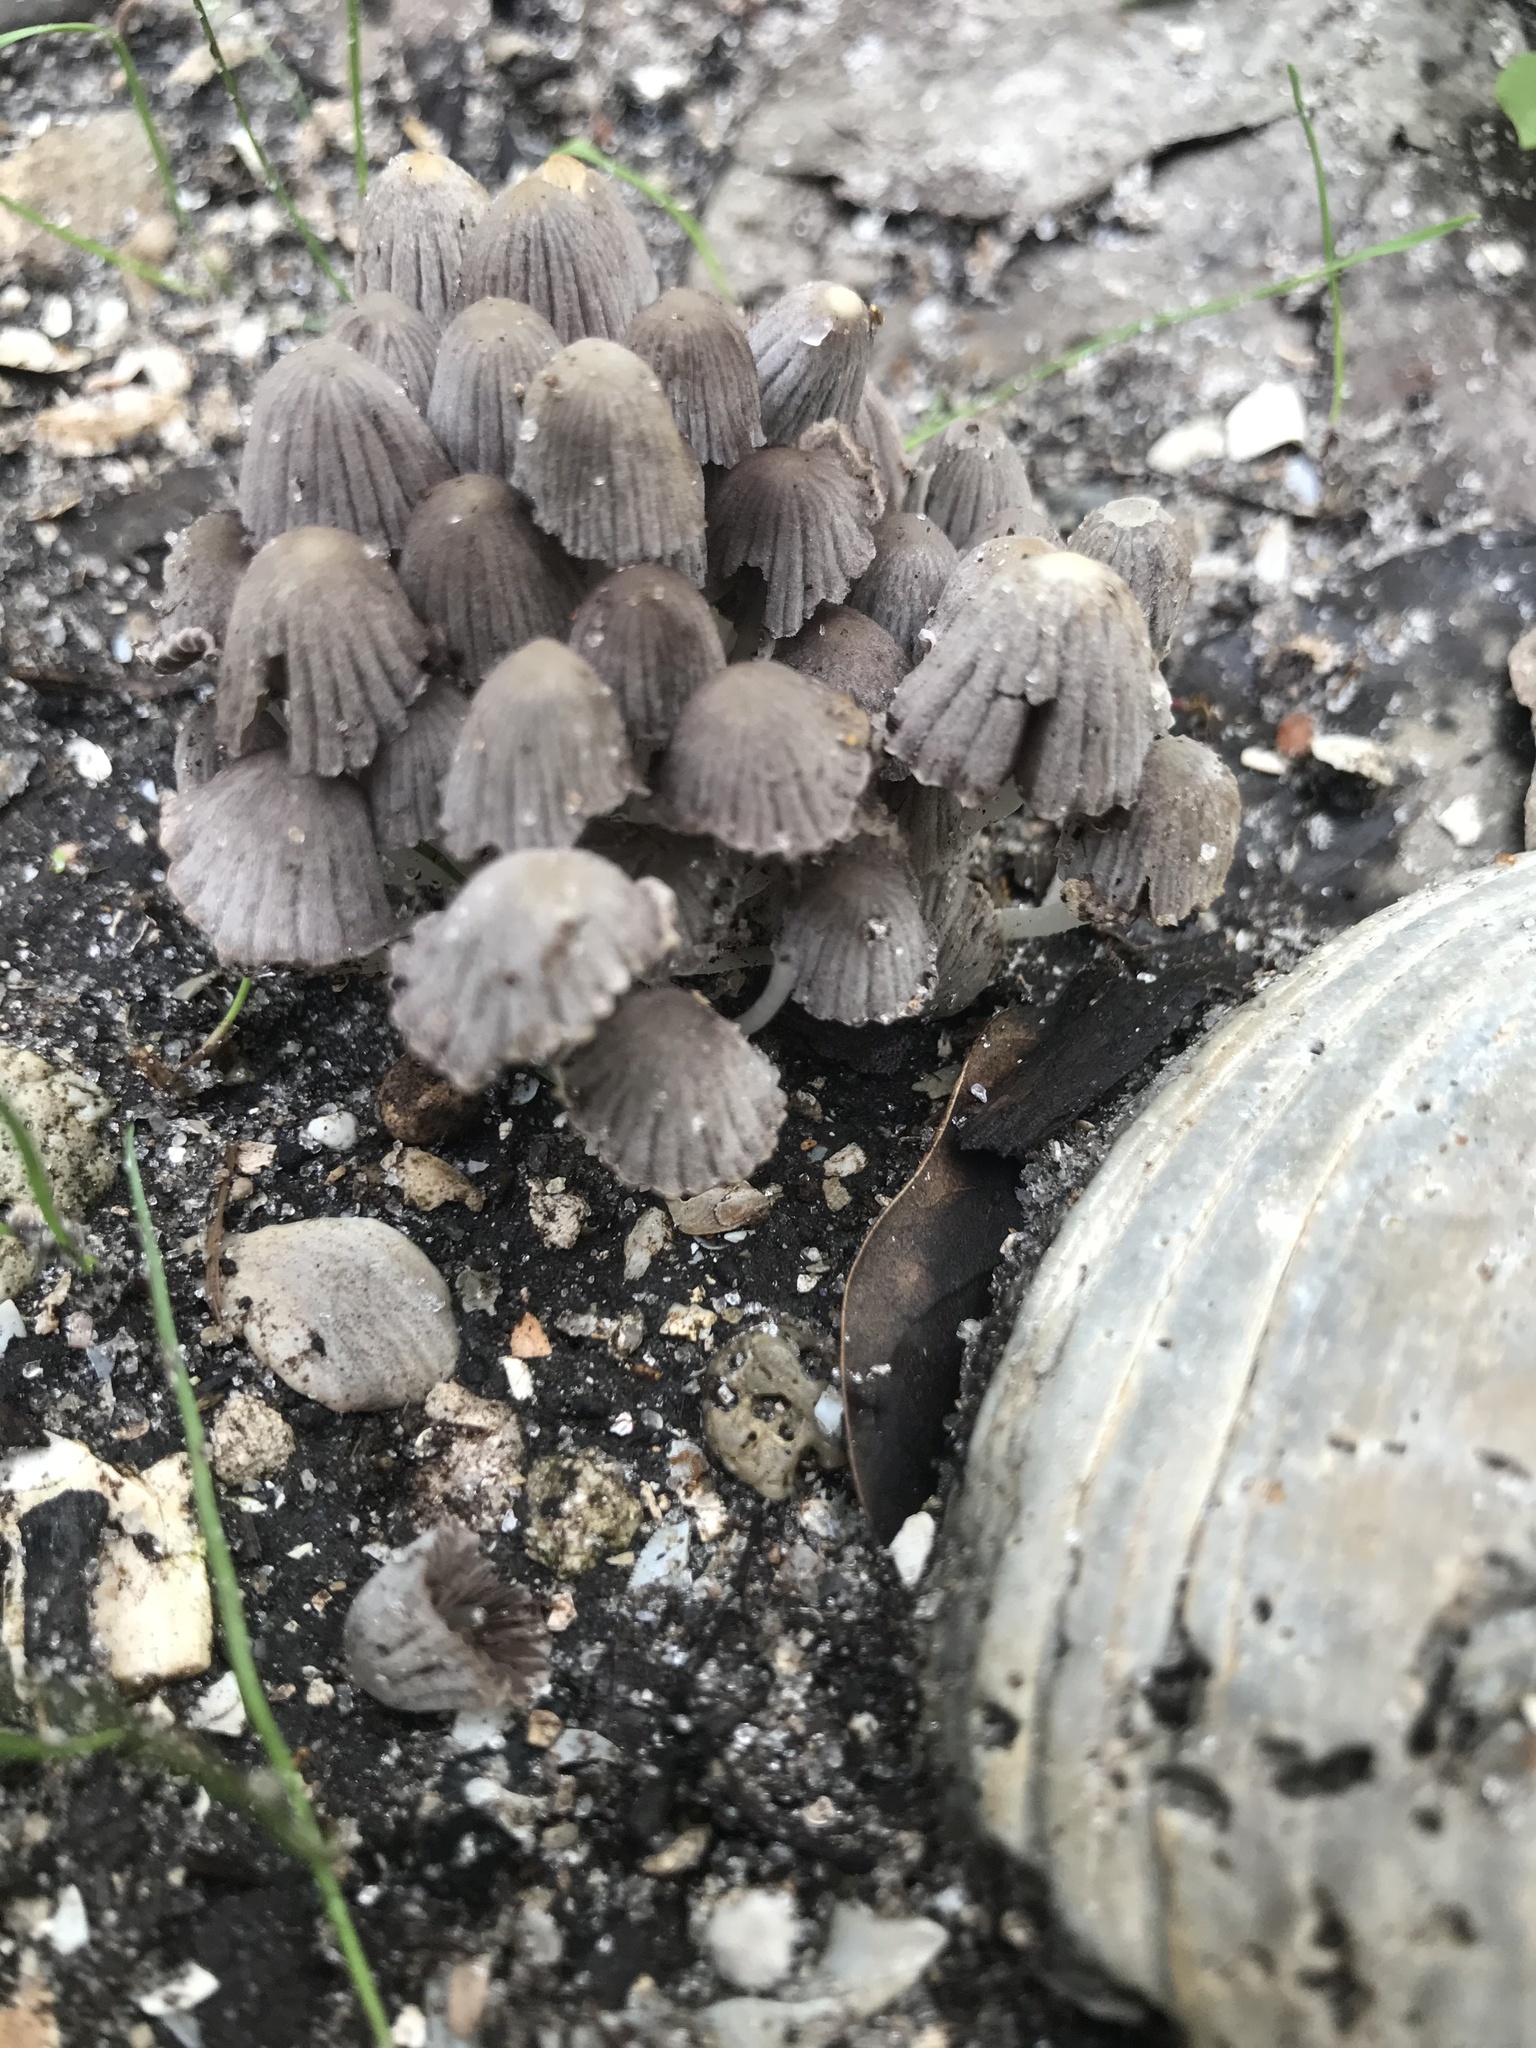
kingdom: Fungi
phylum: Basidiomycota
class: Agaricomycetes
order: Agaricales
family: Psathyrellaceae
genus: Coprinellus
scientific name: Coprinellus disseminatus
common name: Fairies' bonnets
